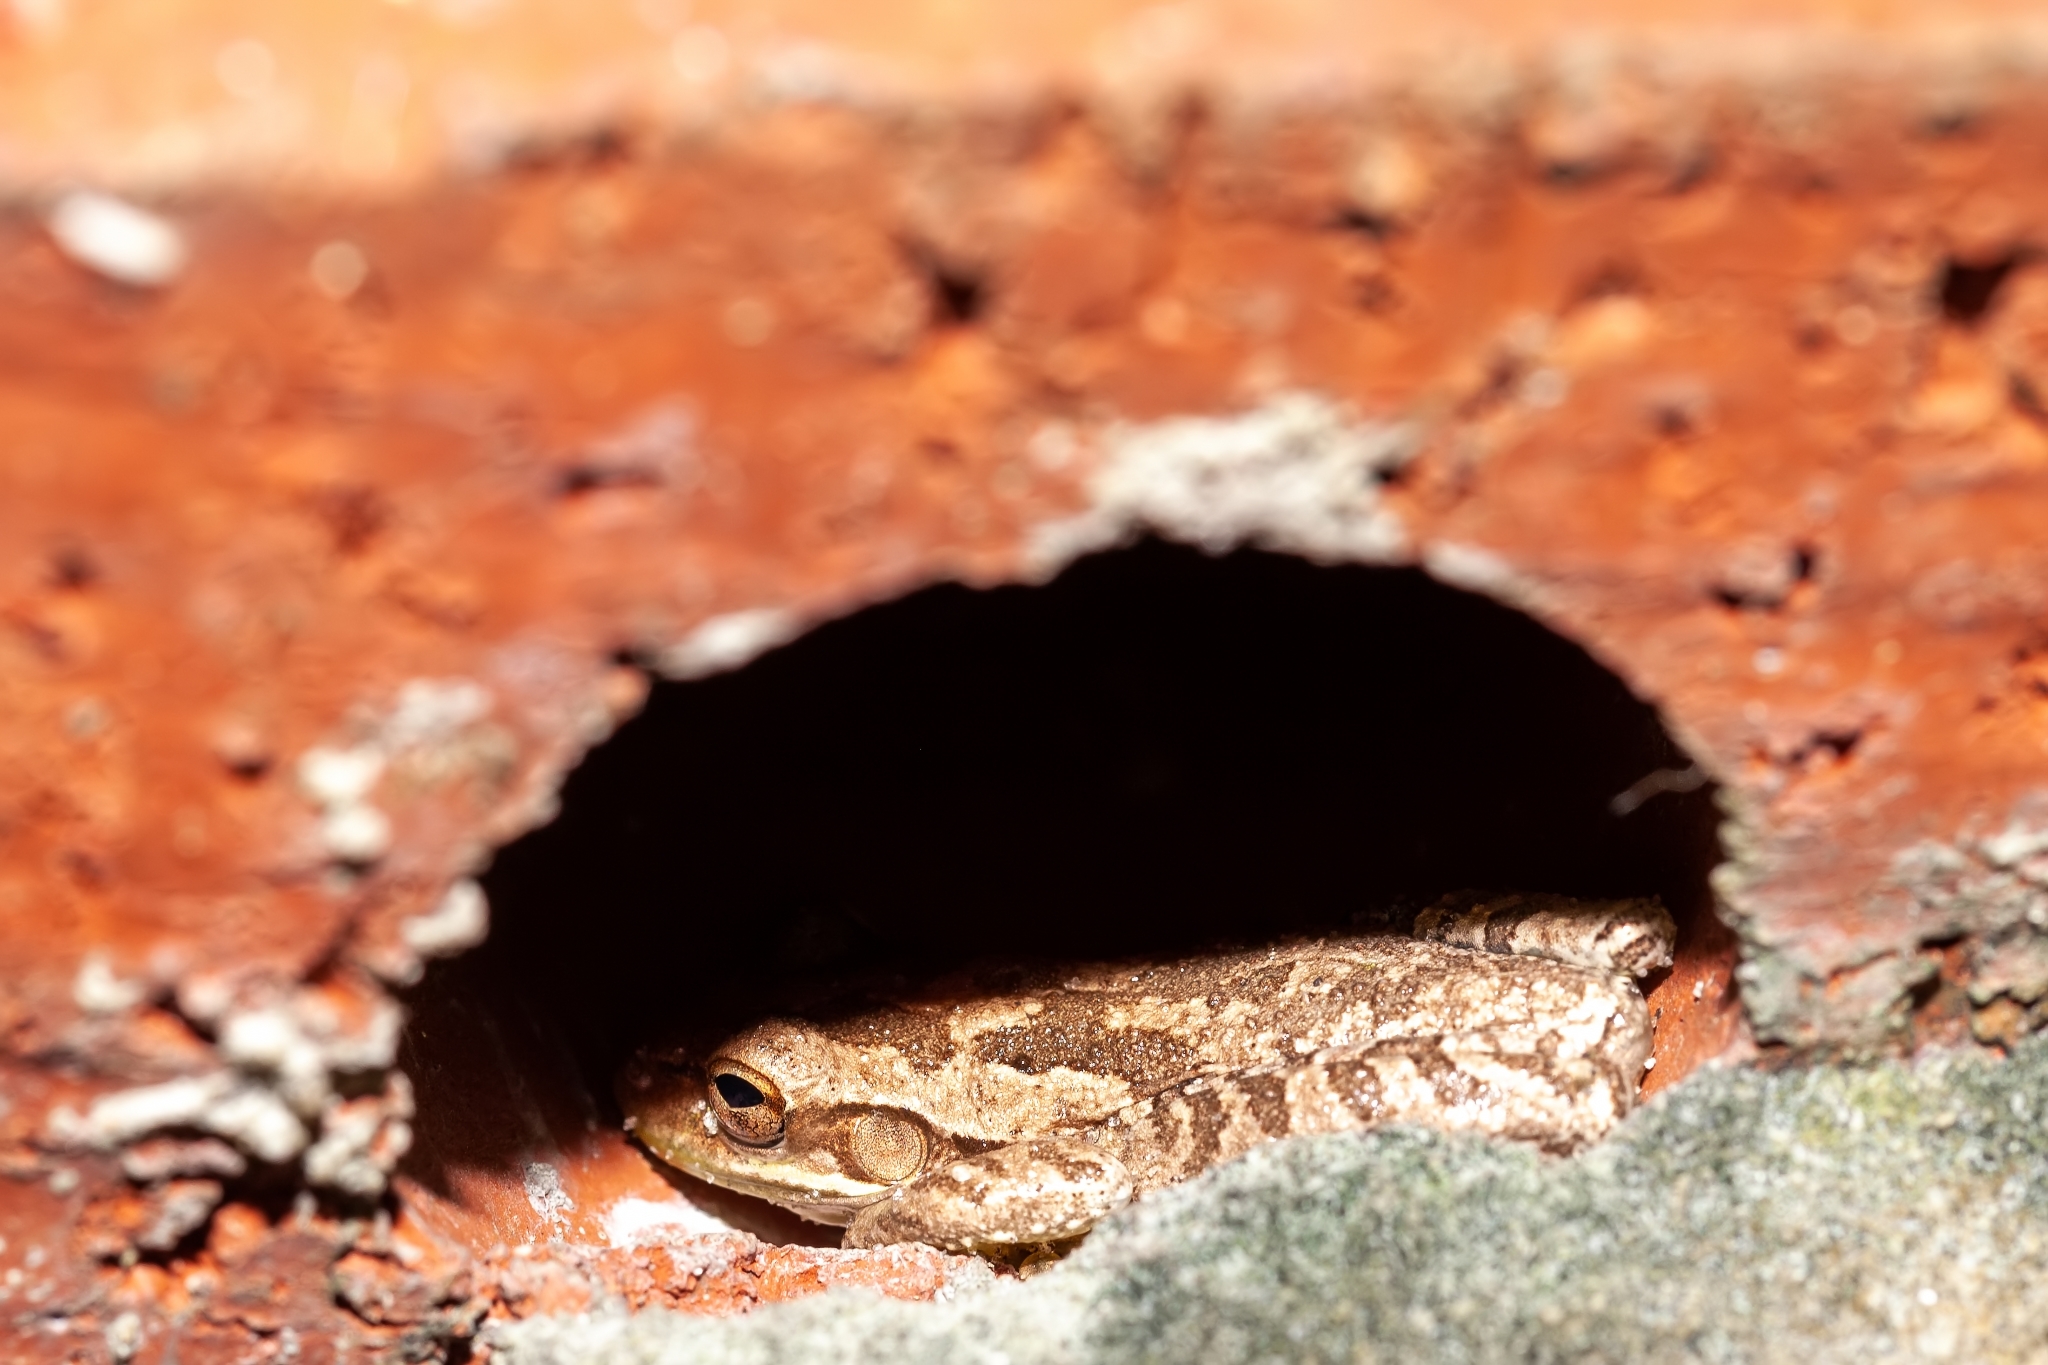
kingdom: Animalia
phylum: Chordata
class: Amphibia
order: Anura
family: Hylidae
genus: Osteopilus
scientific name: Osteopilus septentrionalis
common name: Cuban treefrog
